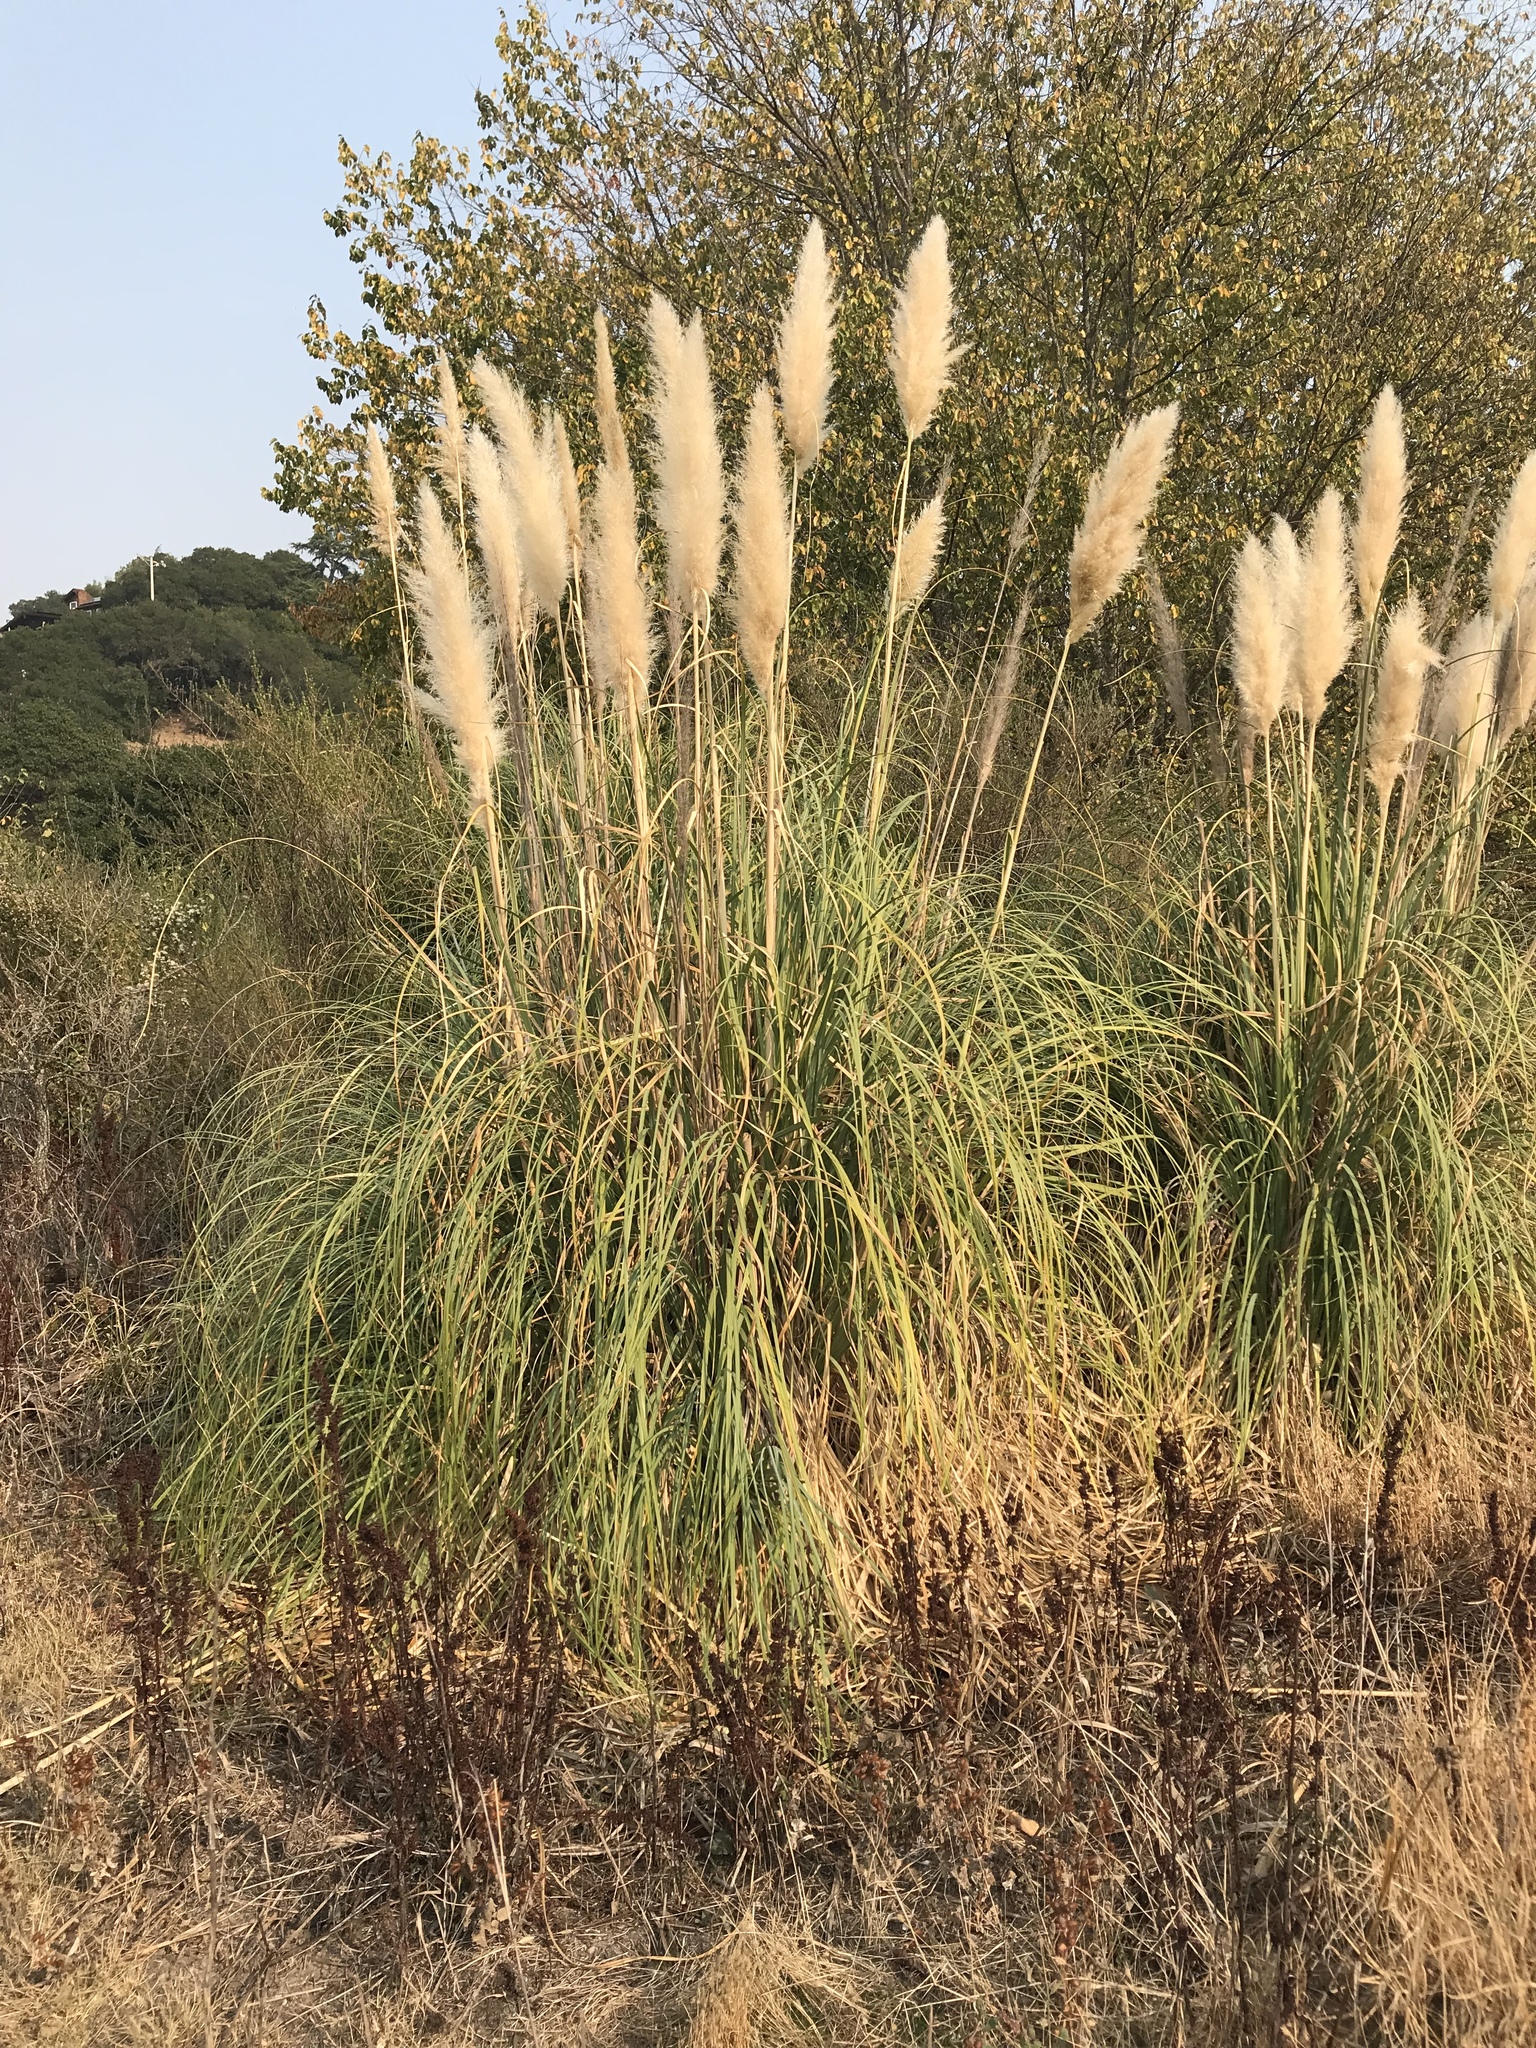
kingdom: Plantae
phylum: Tracheophyta
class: Liliopsida
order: Poales
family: Poaceae
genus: Cortaderia
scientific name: Cortaderia selloana
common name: Uruguayan pampas grass
